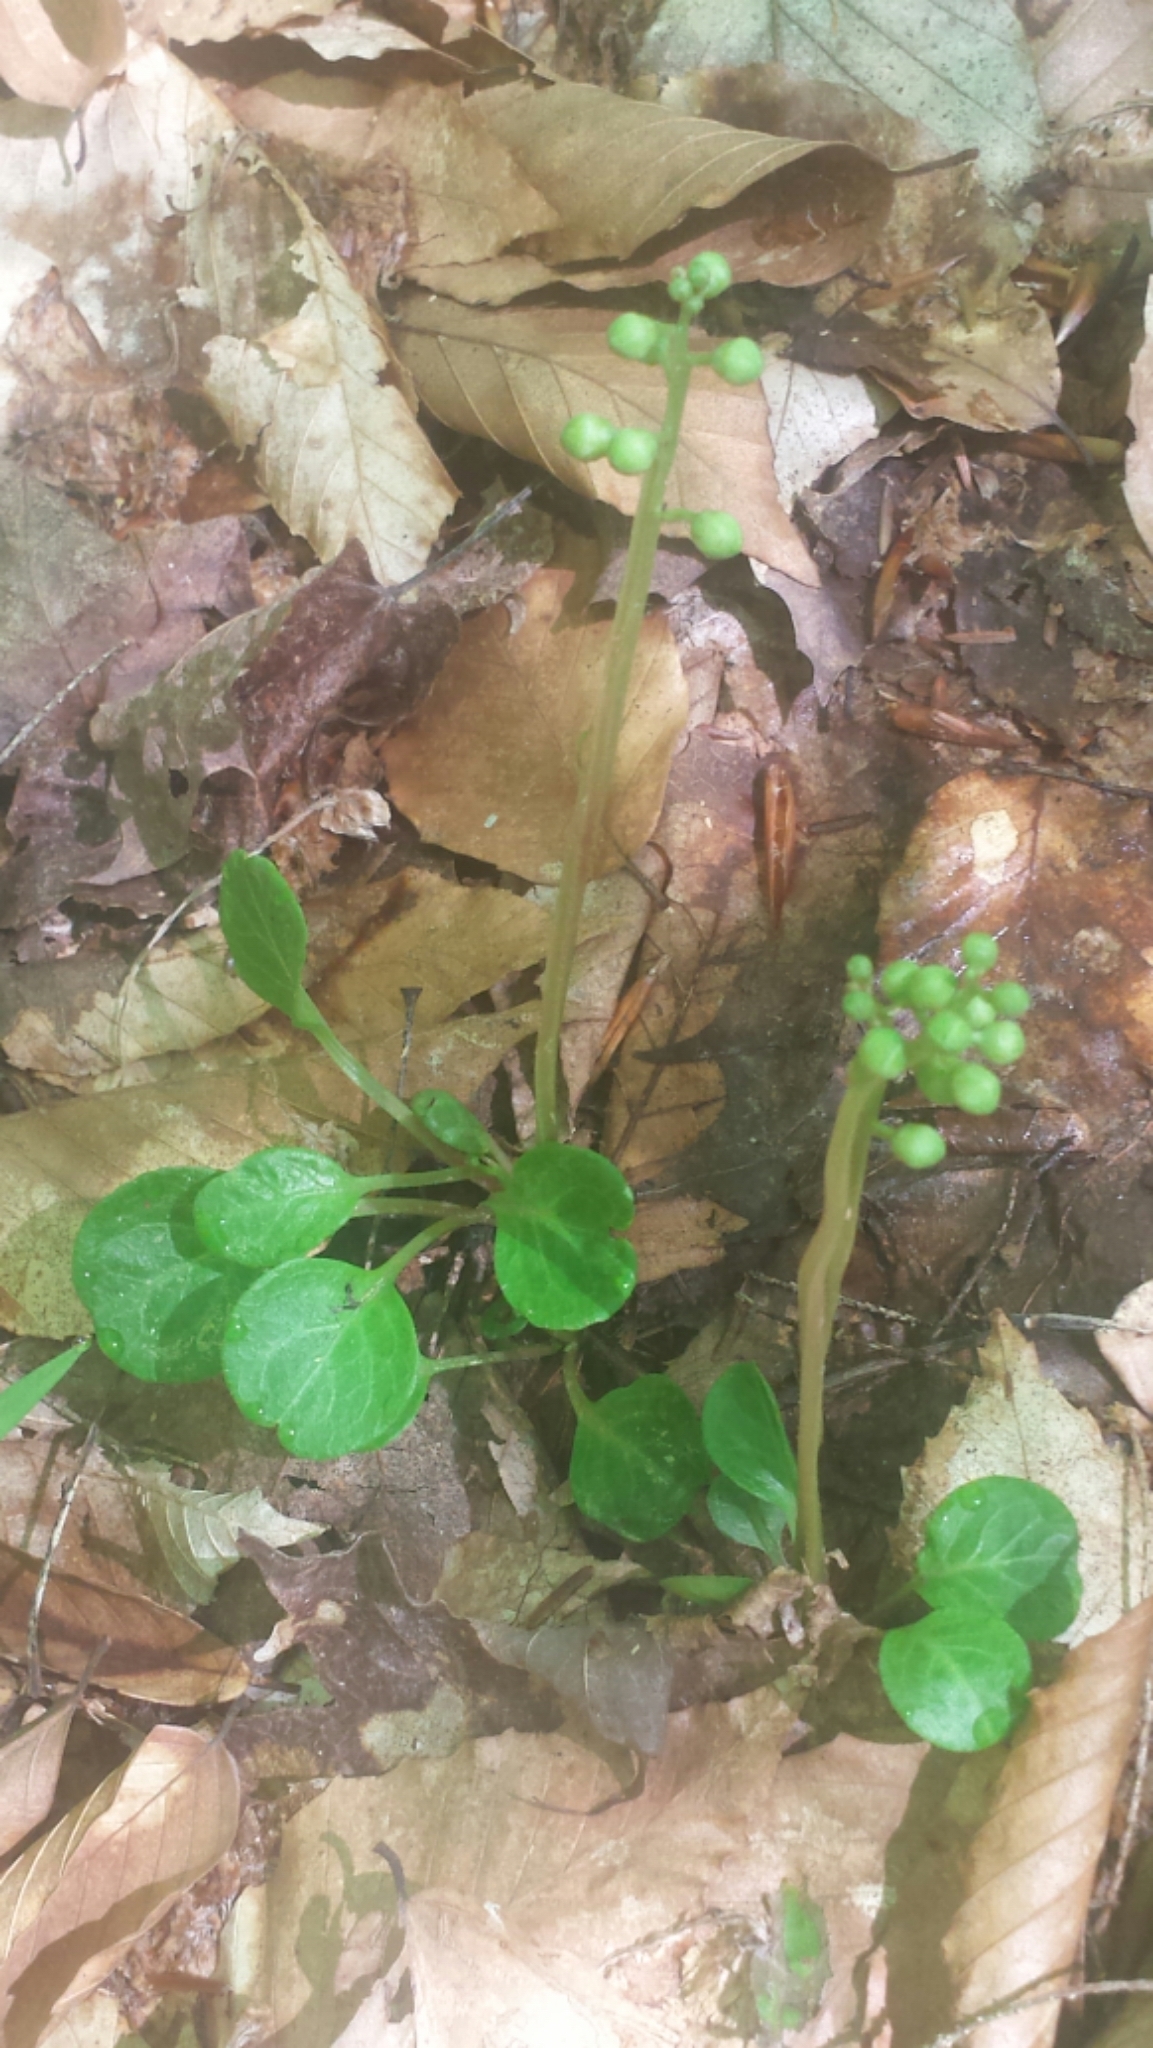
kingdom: Plantae
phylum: Tracheophyta
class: Magnoliopsida
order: Ericales
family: Ericaceae
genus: Pyrola
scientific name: Pyrola americana
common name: American wintergreen
